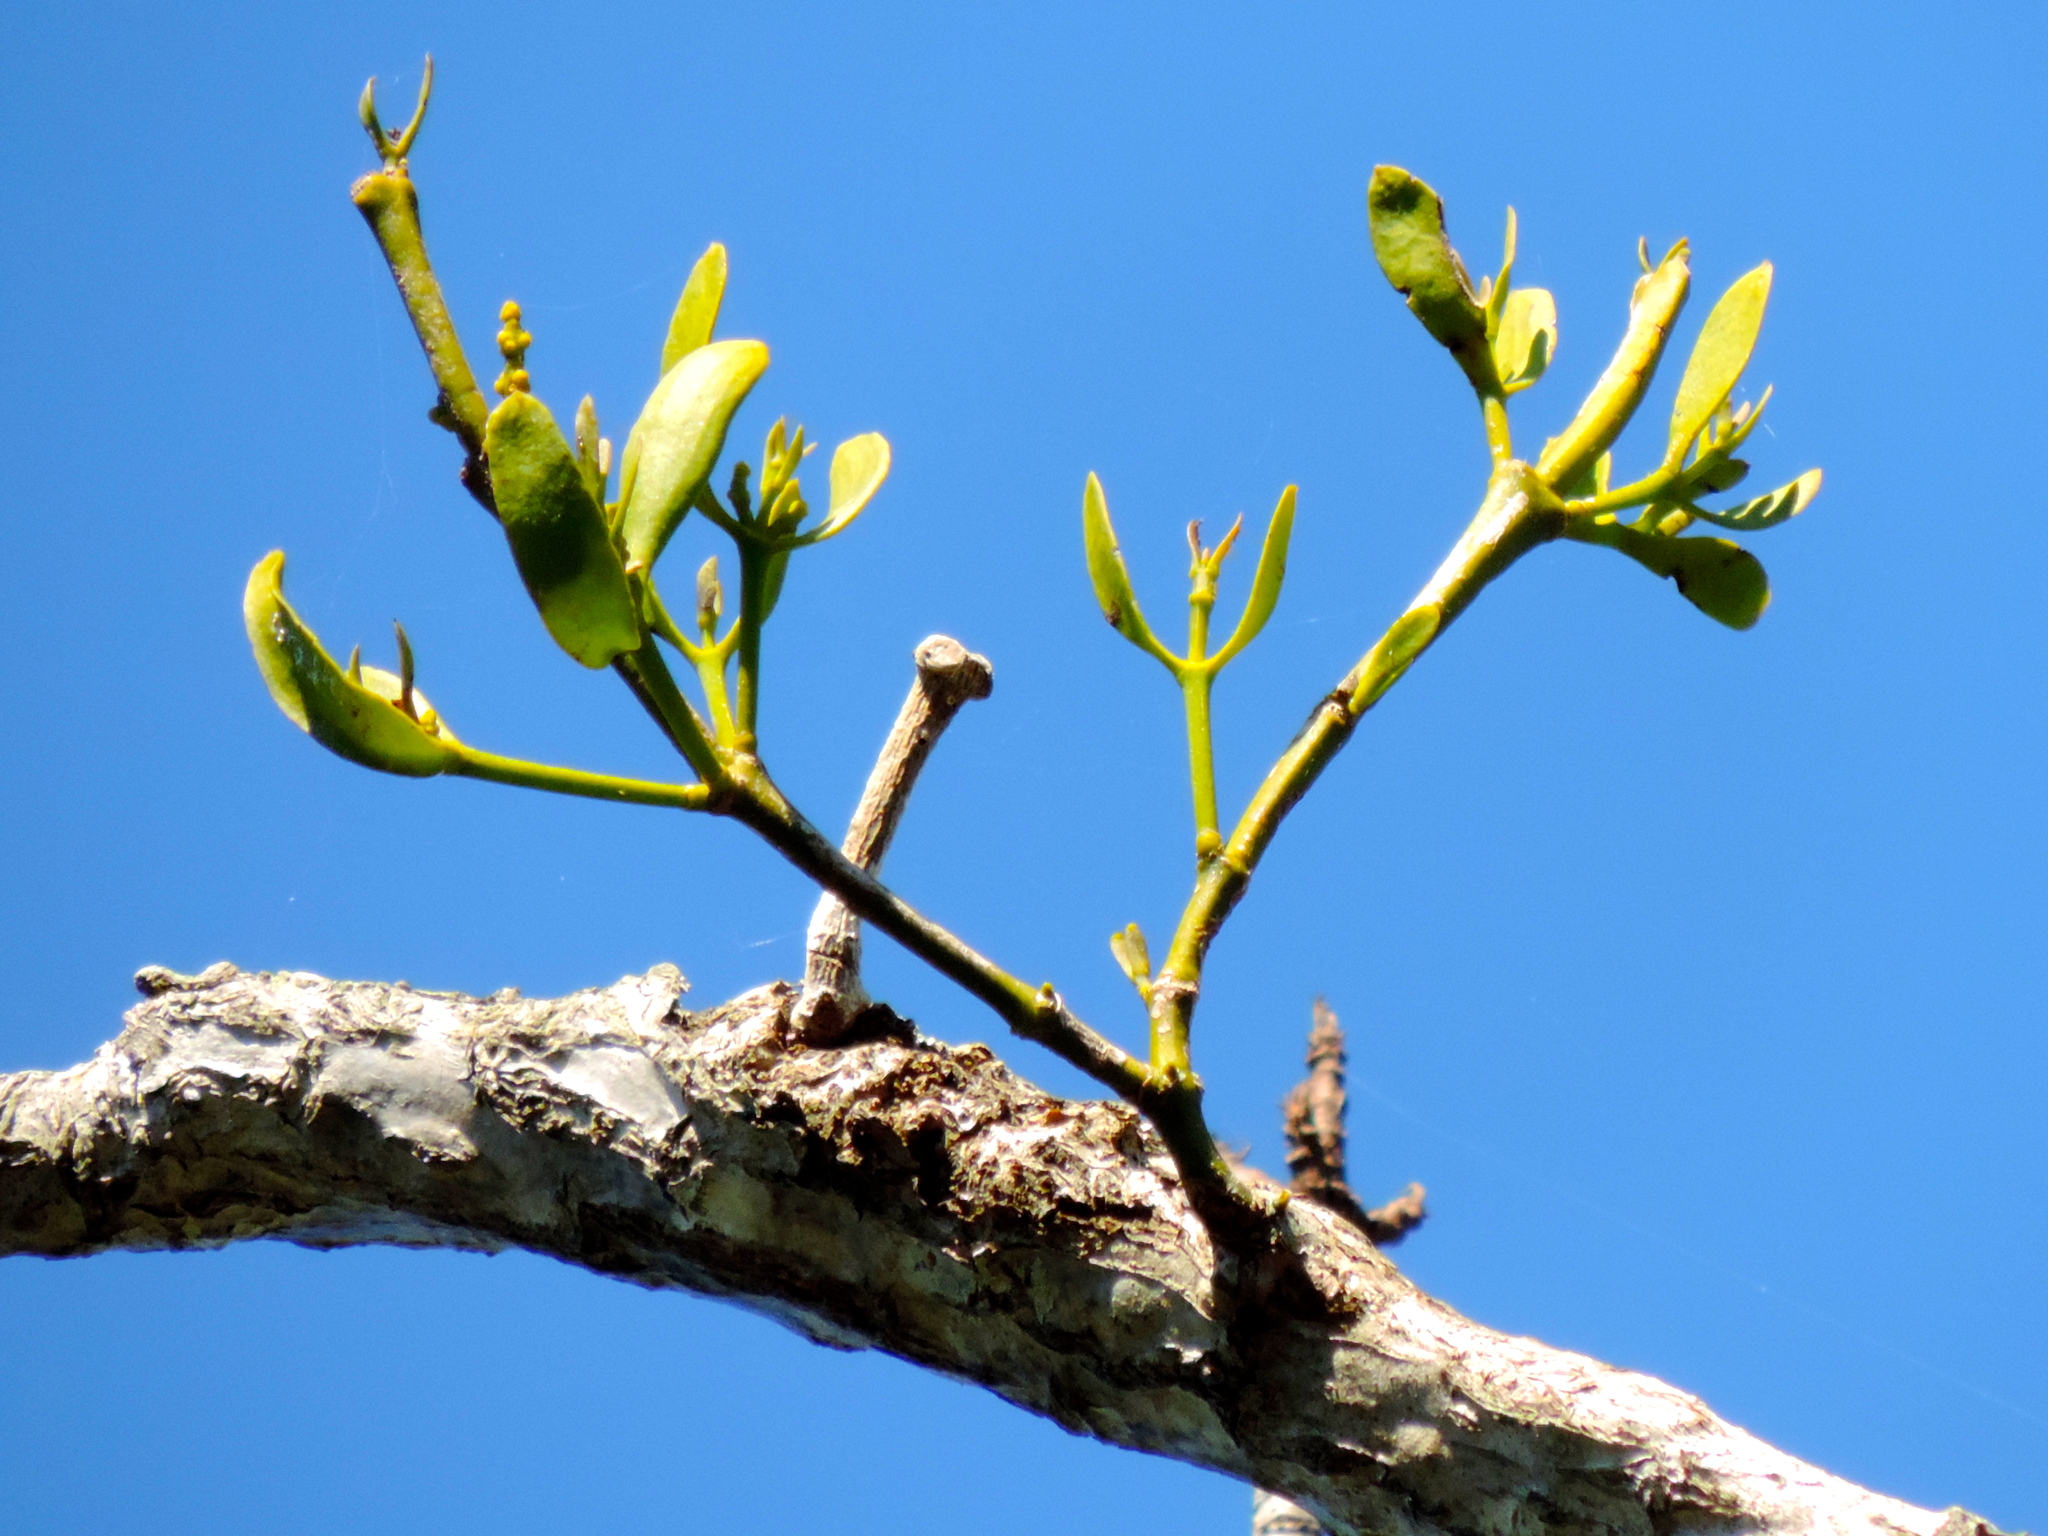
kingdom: Plantae
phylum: Tracheophyta
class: Magnoliopsida
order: Santalales
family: Viscaceae
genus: Phoradendron
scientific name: Phoradendron quadrangulare
